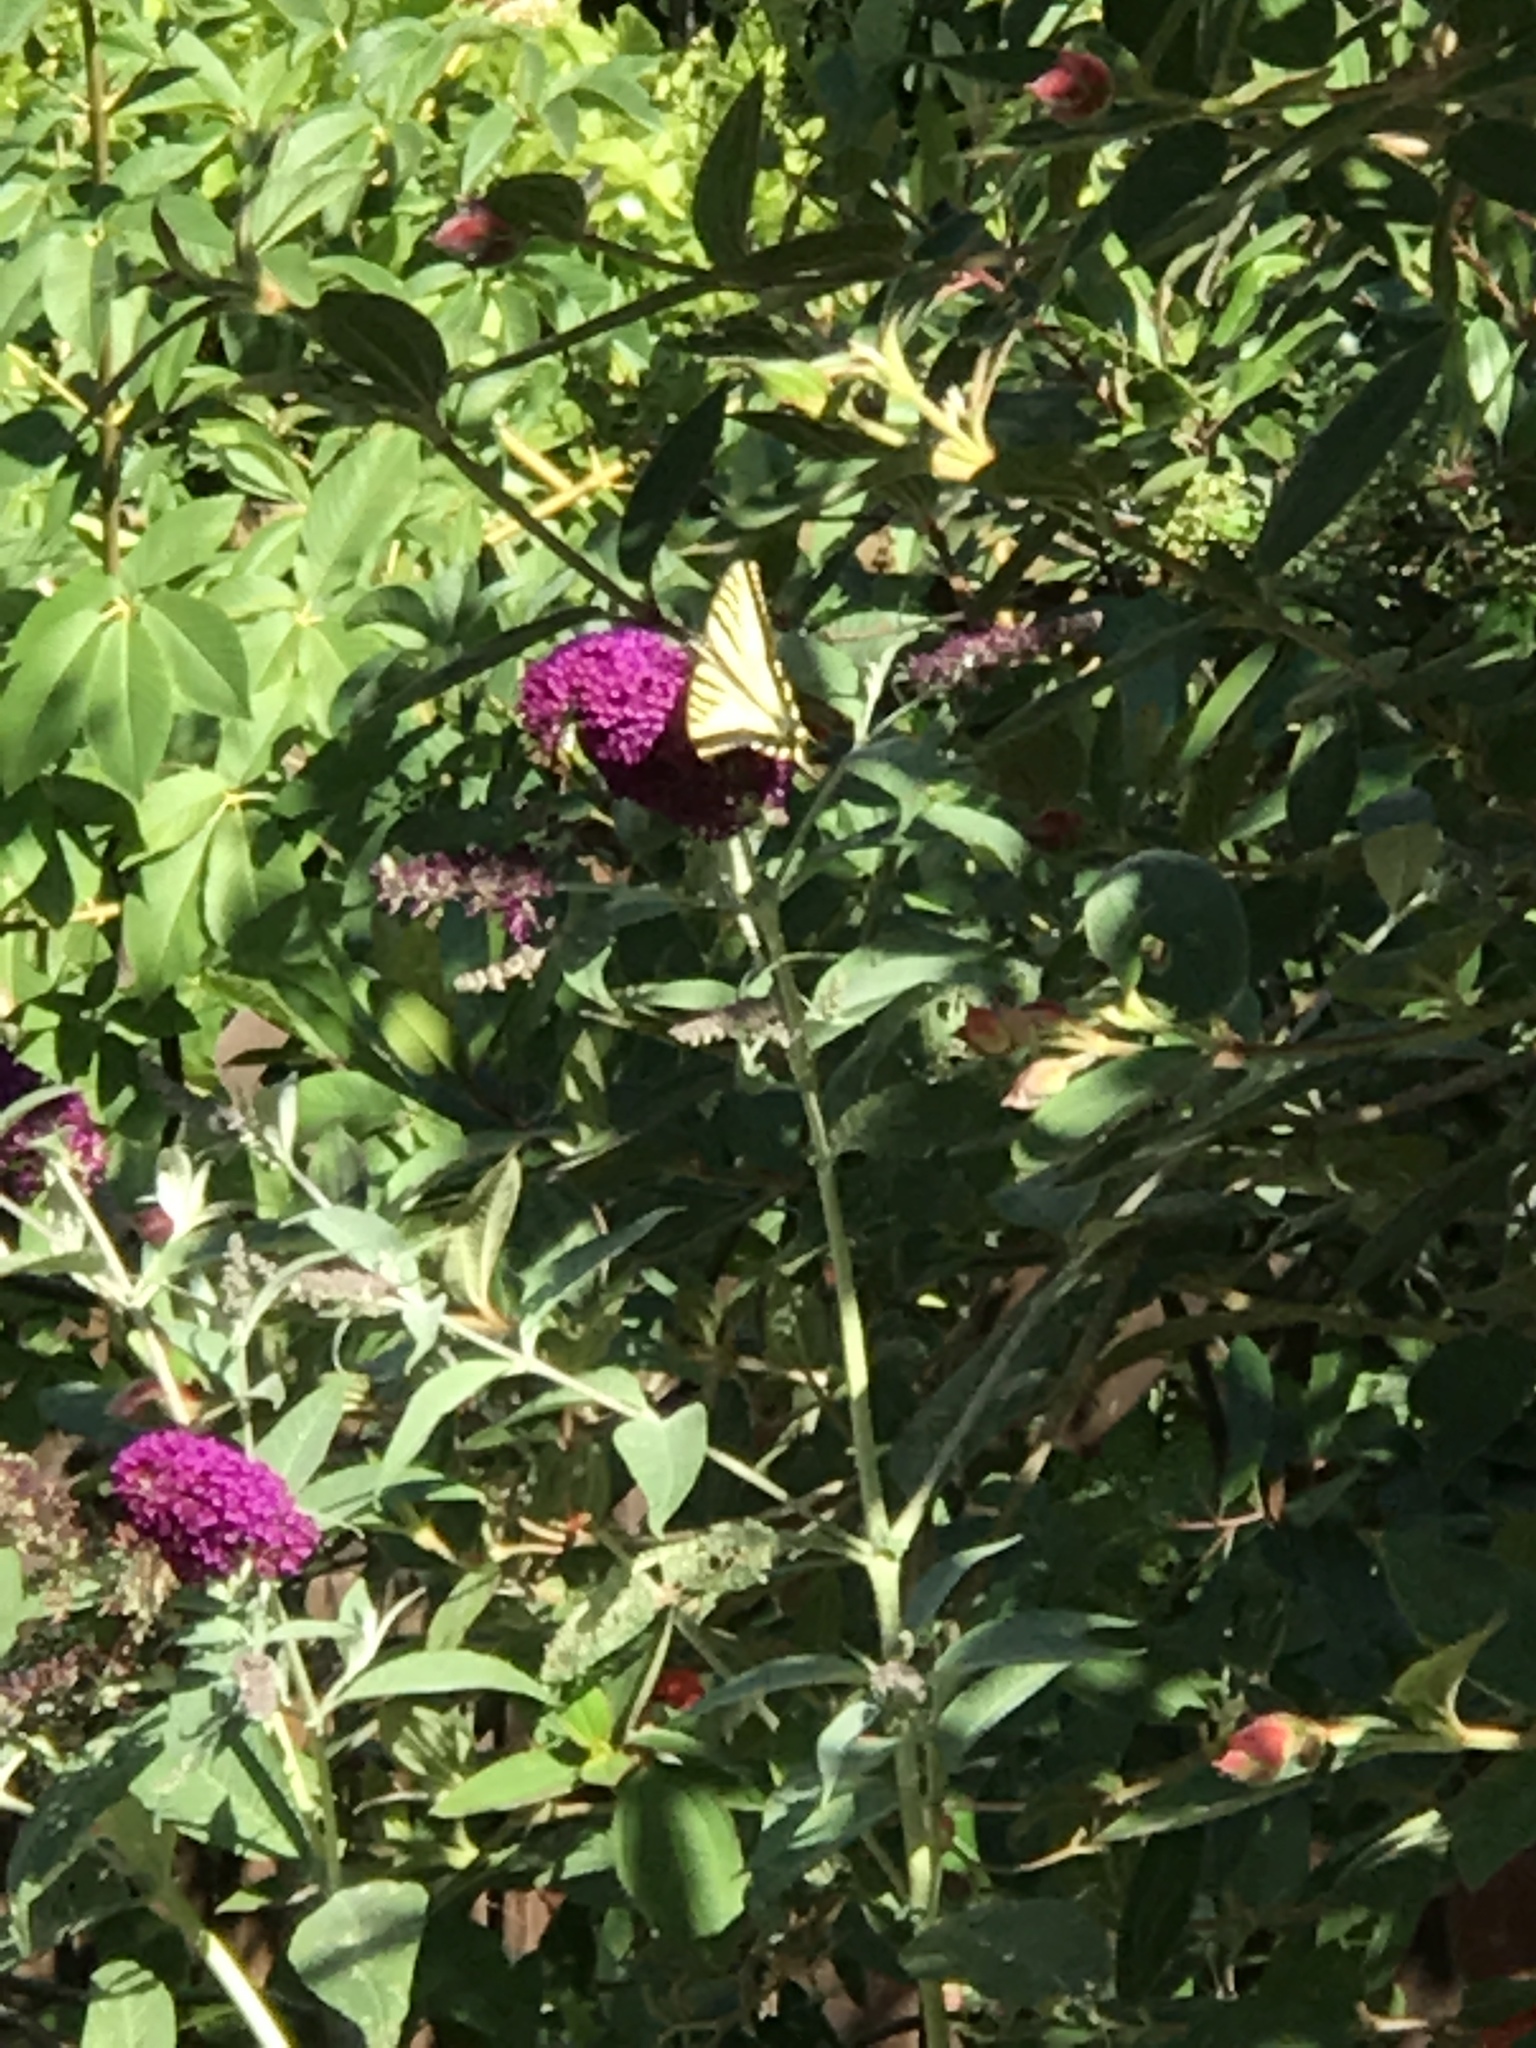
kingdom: Animalia
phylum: Arthropoda
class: Insecta
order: Lepidoptera
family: Papilionidae
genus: Papilio
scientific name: Papilio rutulus
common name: Western tiger swallowtail
